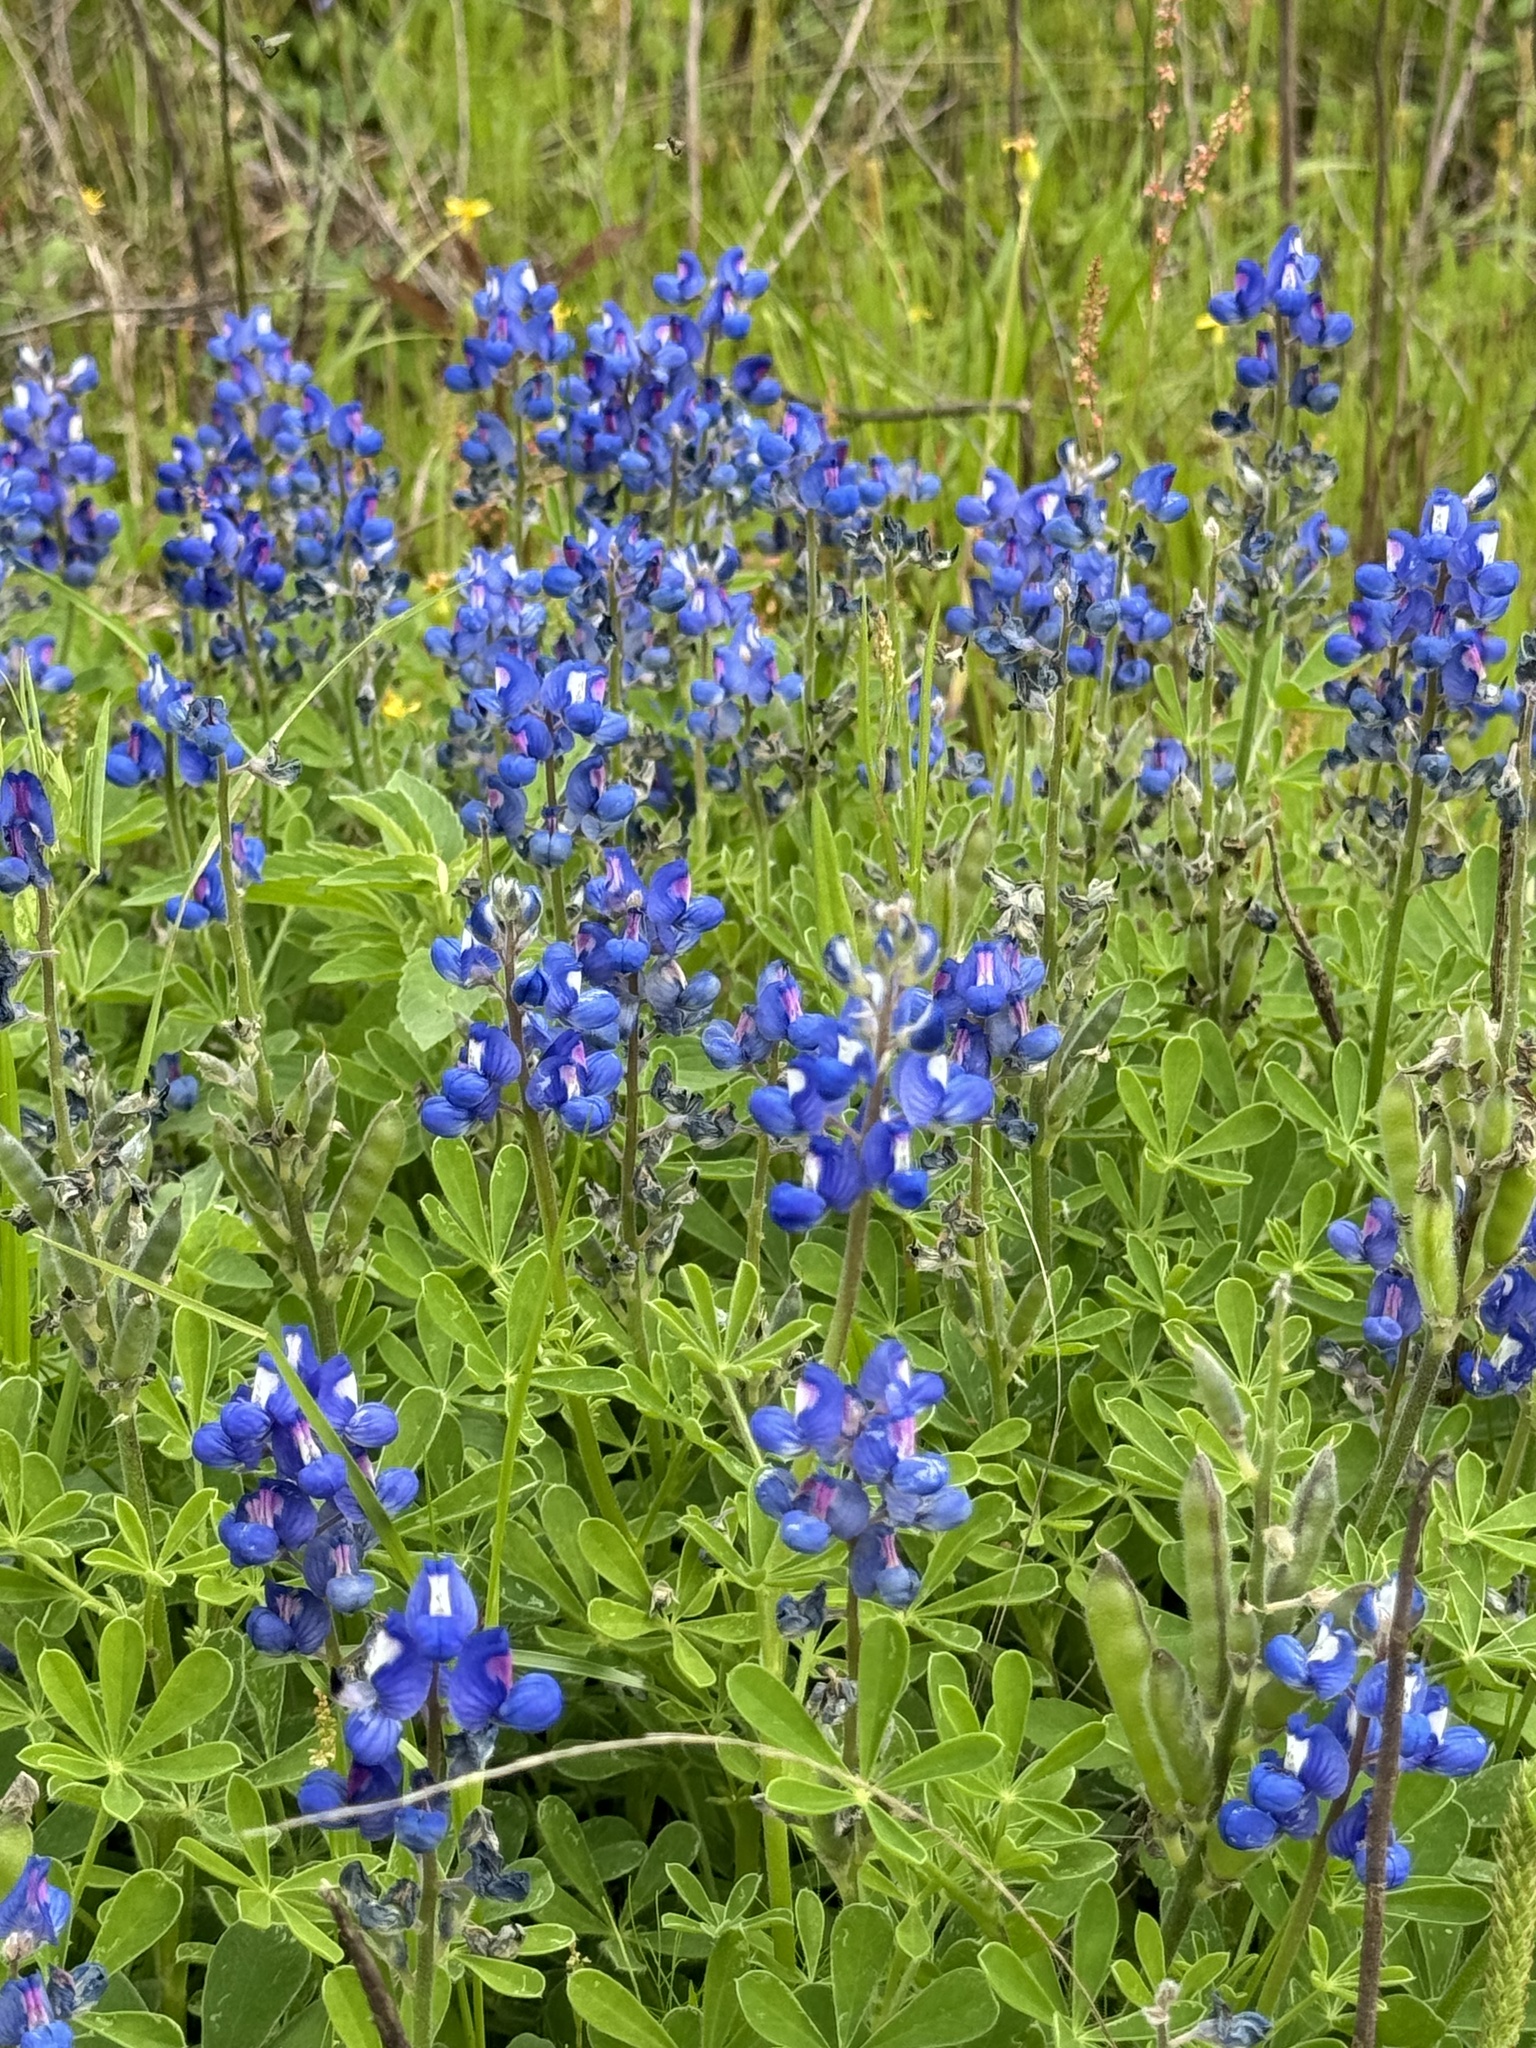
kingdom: Plantae
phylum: Tracheophyta
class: Magnoliopsida
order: Fabales
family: Fabaceae
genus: Lupinus
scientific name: Lupinus subcarnosus
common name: Texas bluebonnet
